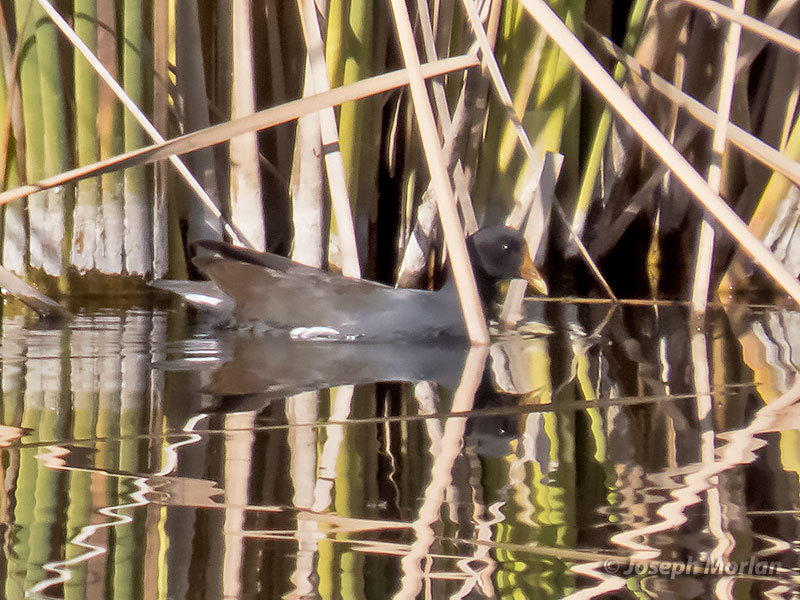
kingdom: Animalia
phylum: Chordata
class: Aves
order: Gruiformes
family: Rallidae
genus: Gallinula
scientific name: Gallinula chloropus
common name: Common moorhen
